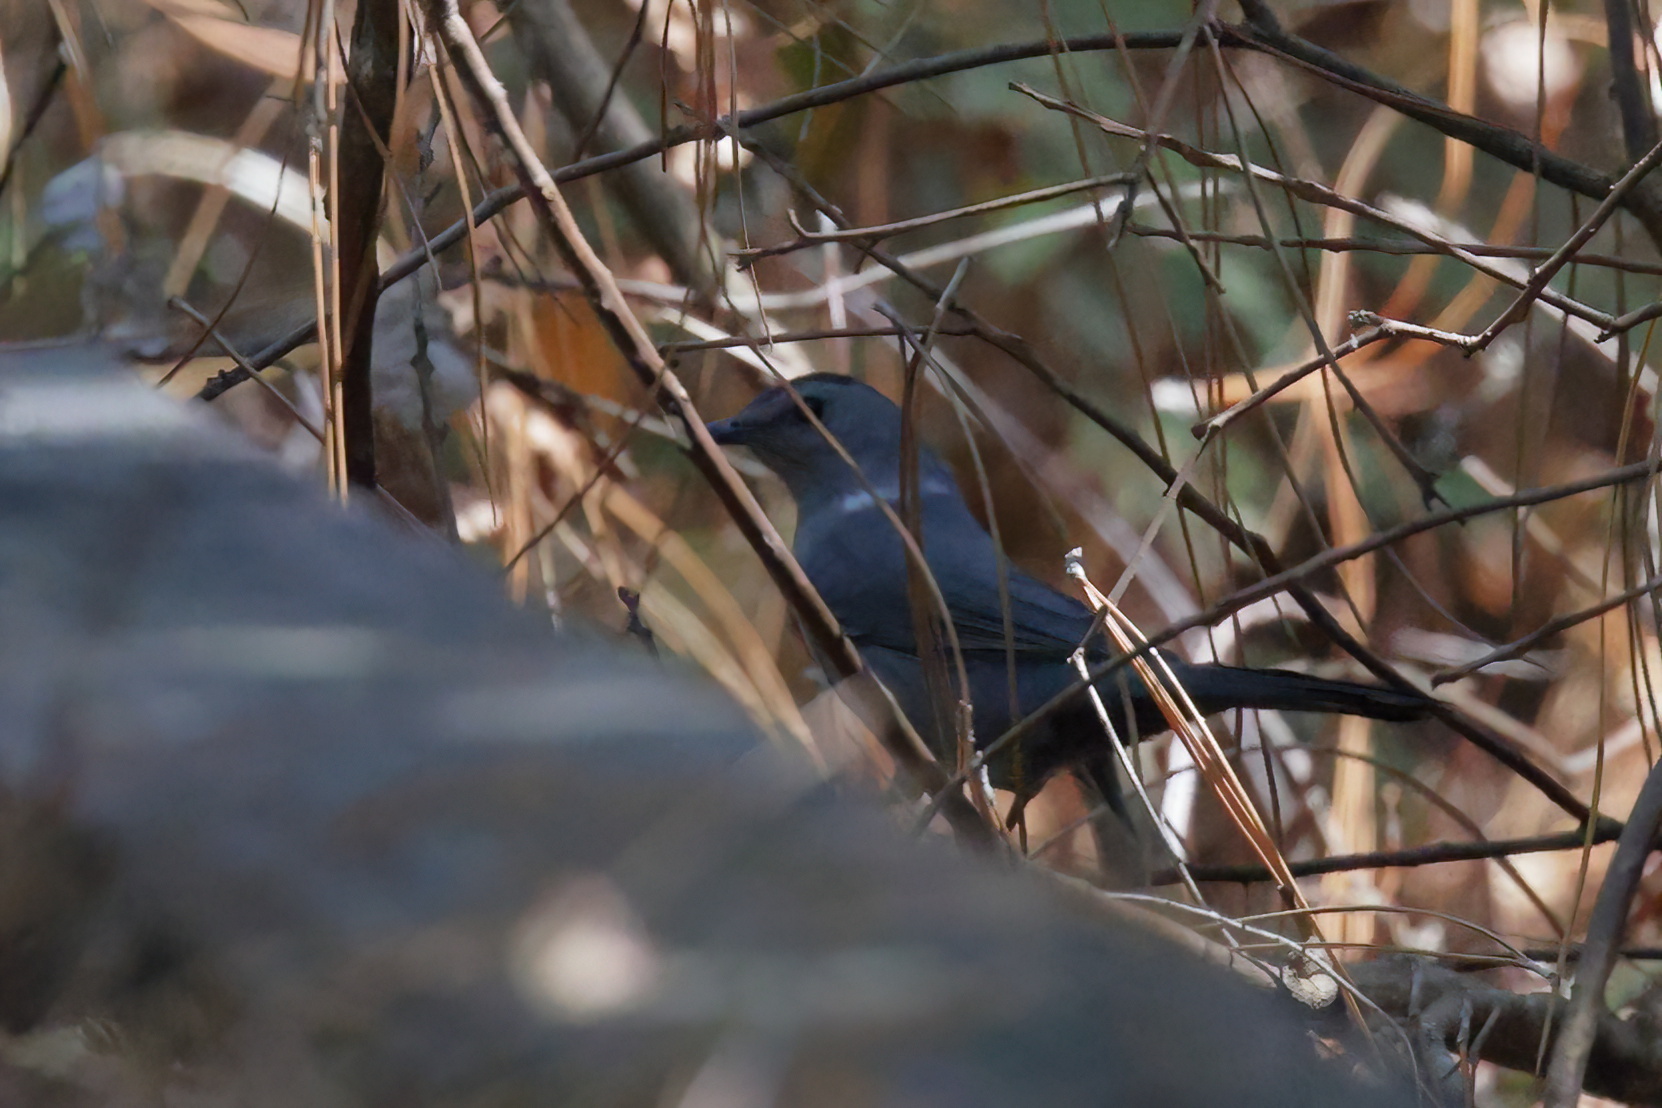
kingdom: Animalia
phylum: Chordata
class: Aves
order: Passeriformes
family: Mimidae
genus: Dumetella
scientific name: Dumetella carolinensis
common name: Gray catbird
